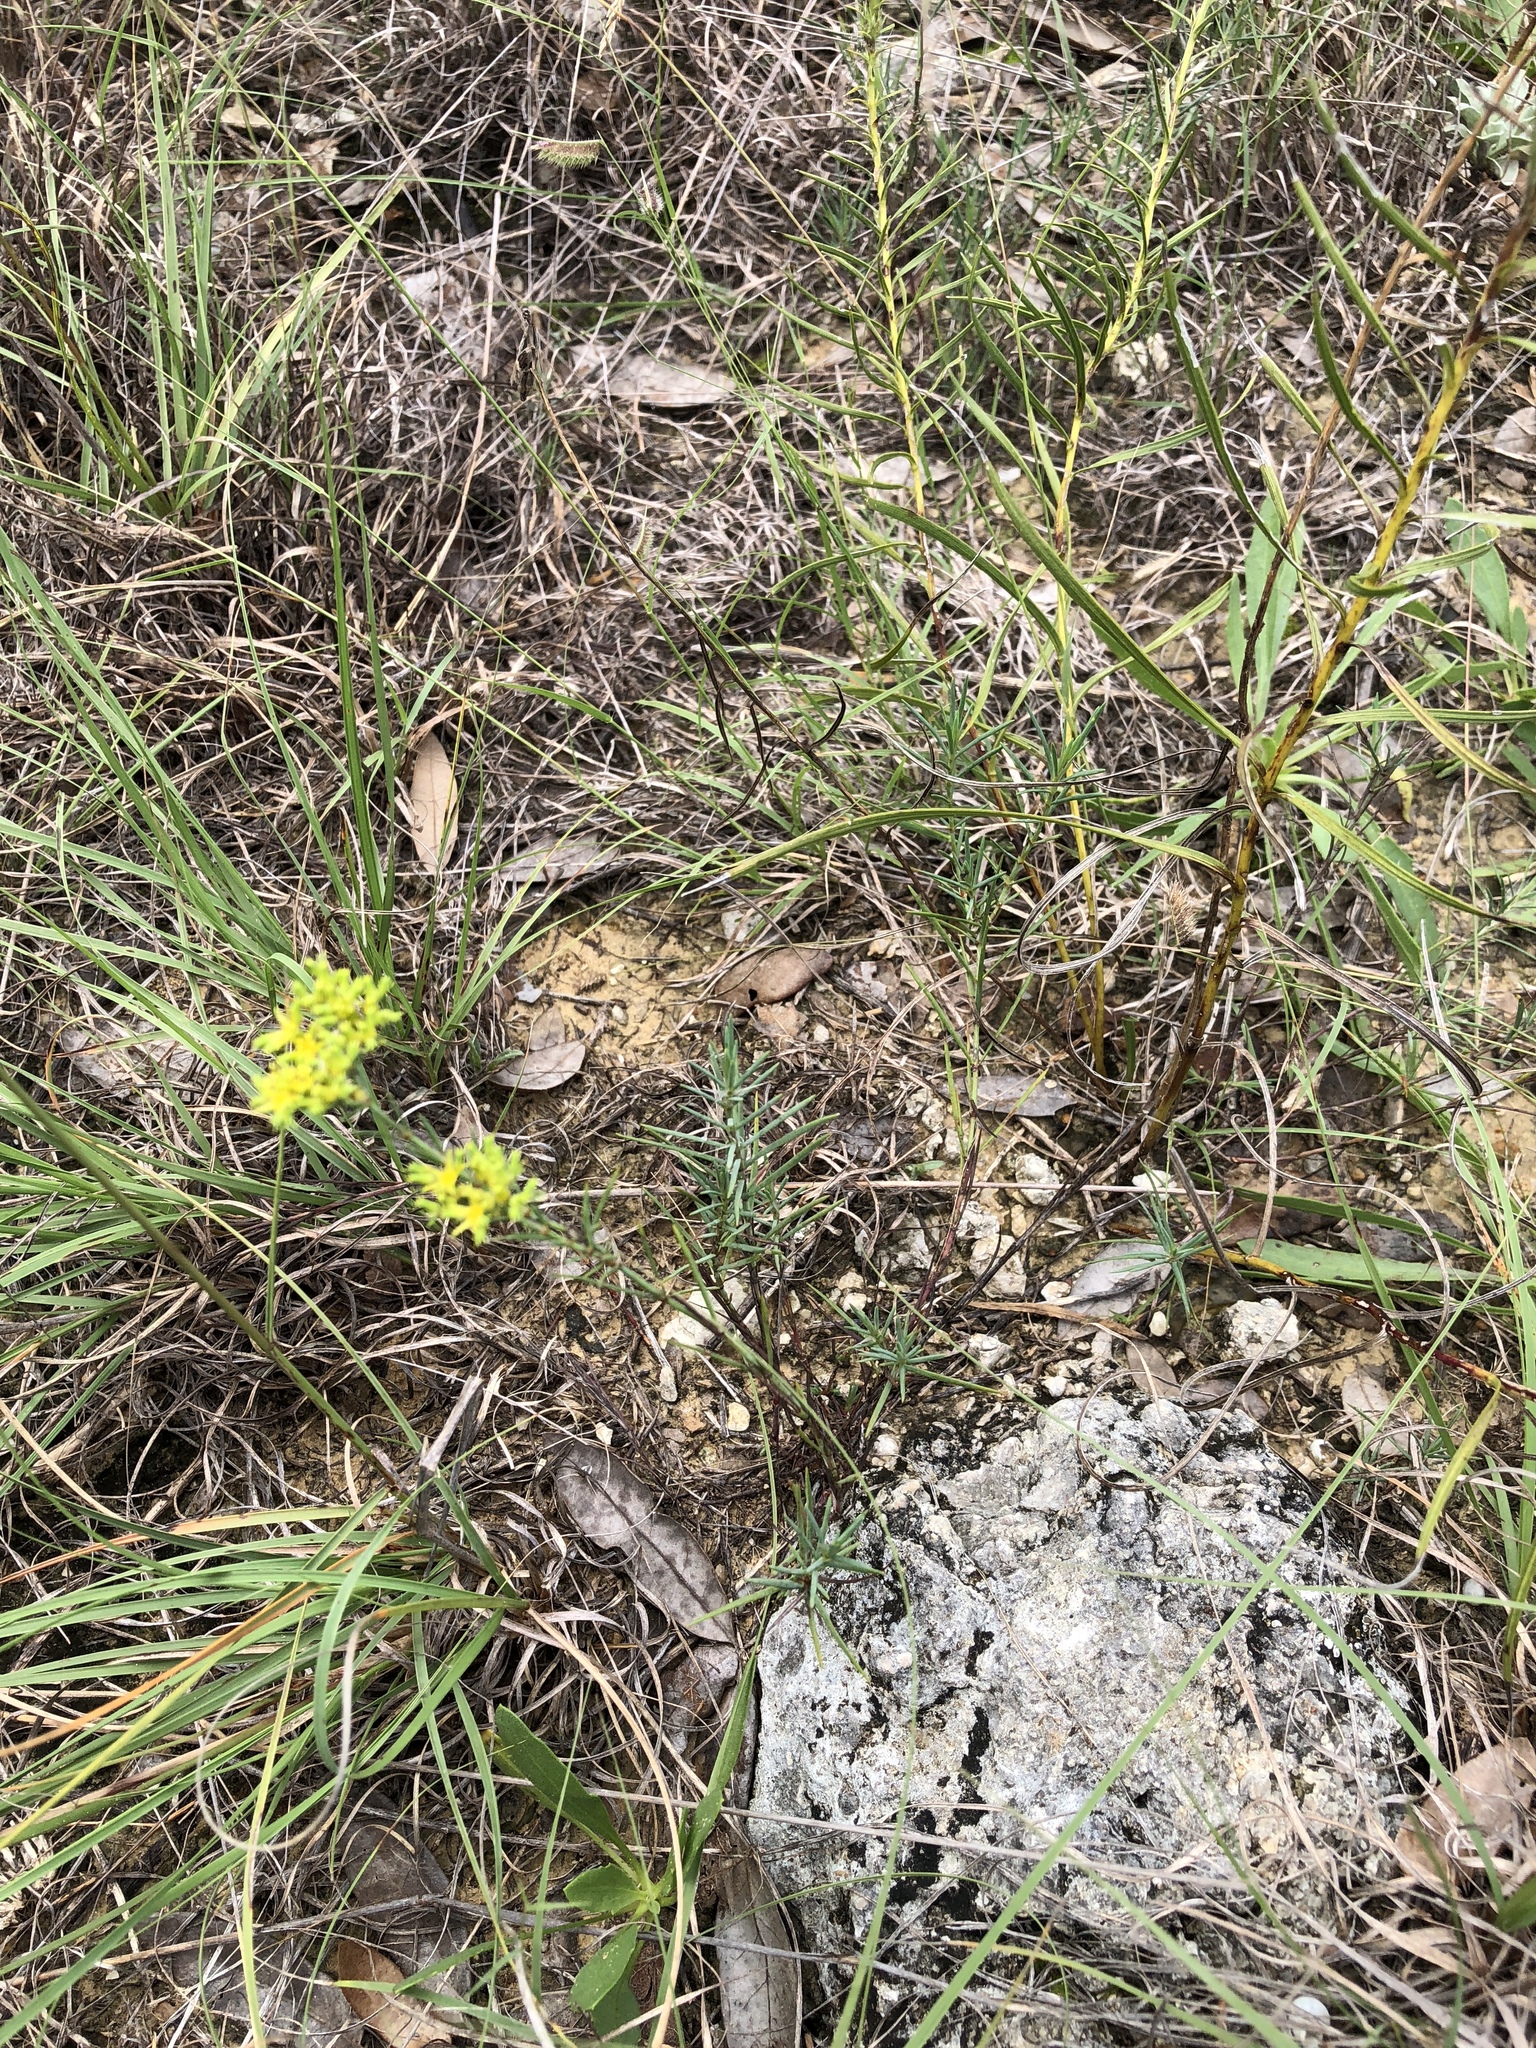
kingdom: Plantae
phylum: Tracheophyta
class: Magnoliopsida
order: Caryophyllales
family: Caryophyllaceae
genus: Paronychia
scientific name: Paronychia virginica
